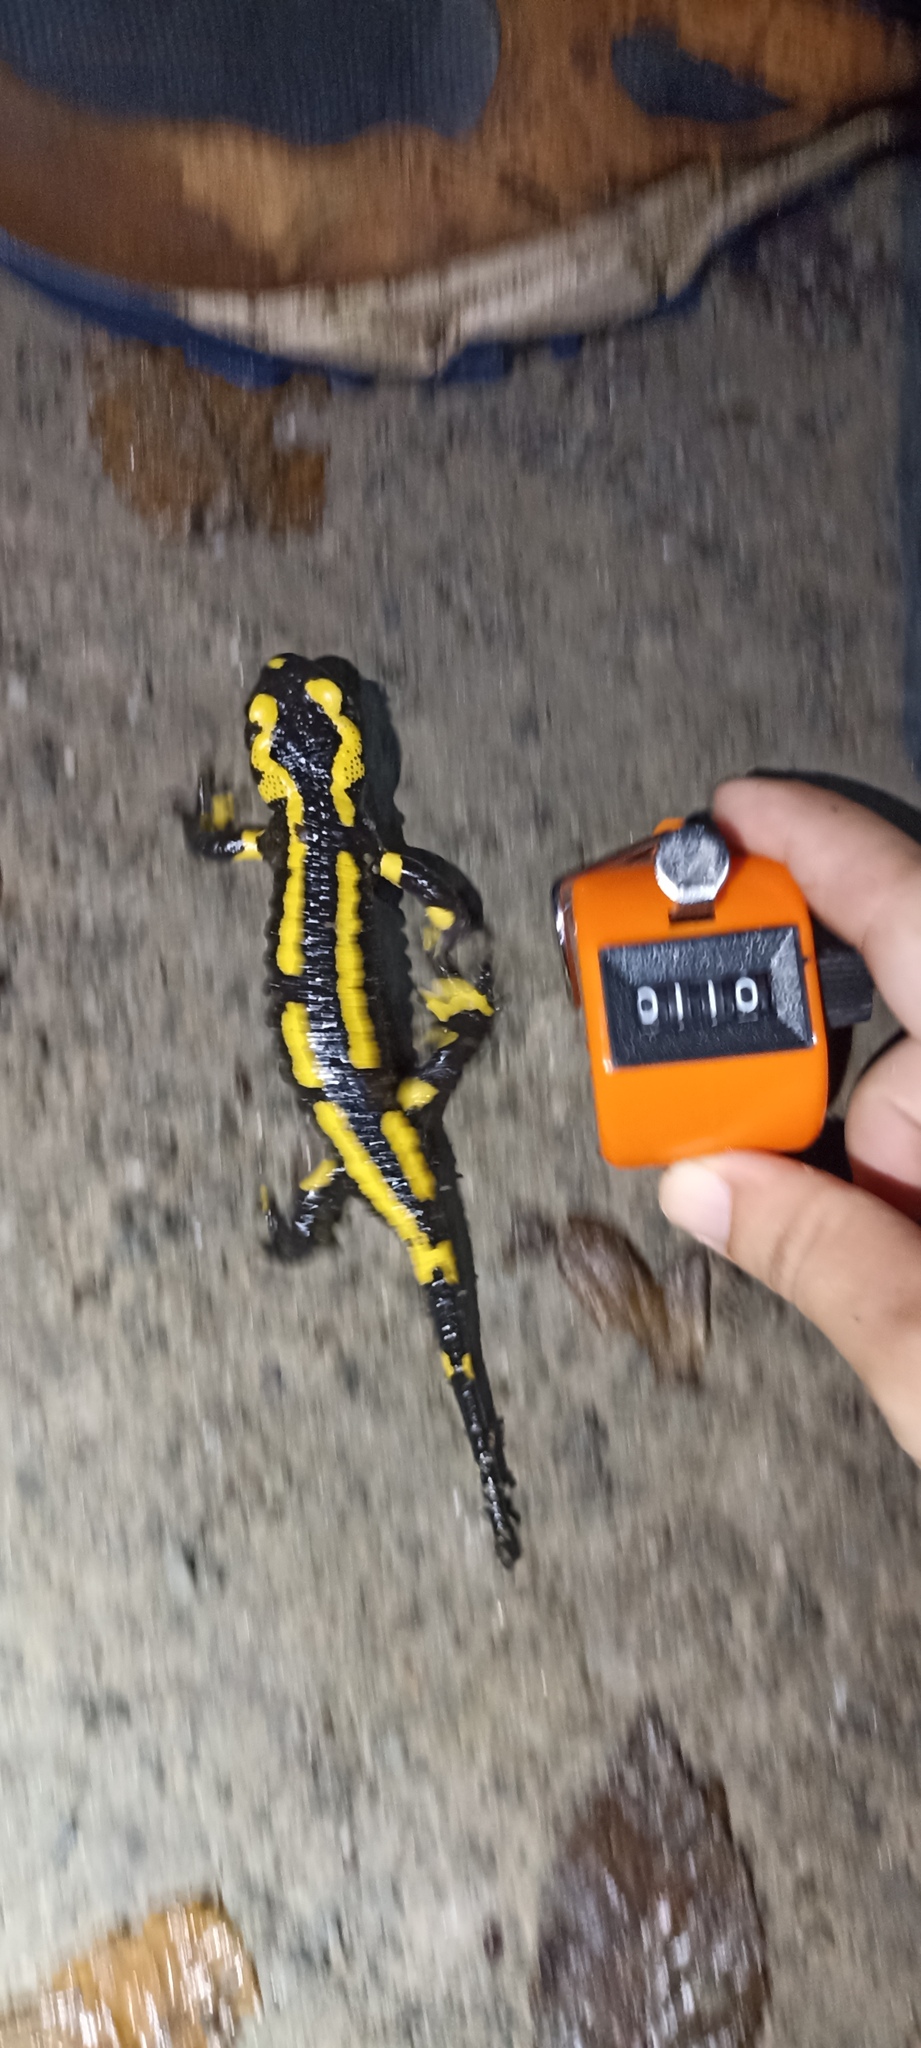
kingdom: Animalia
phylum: Chordata
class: Amphibia
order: Caudata
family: Salamandridae
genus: Salamandra
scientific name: Salamandra salamandra
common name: Fire salamander
